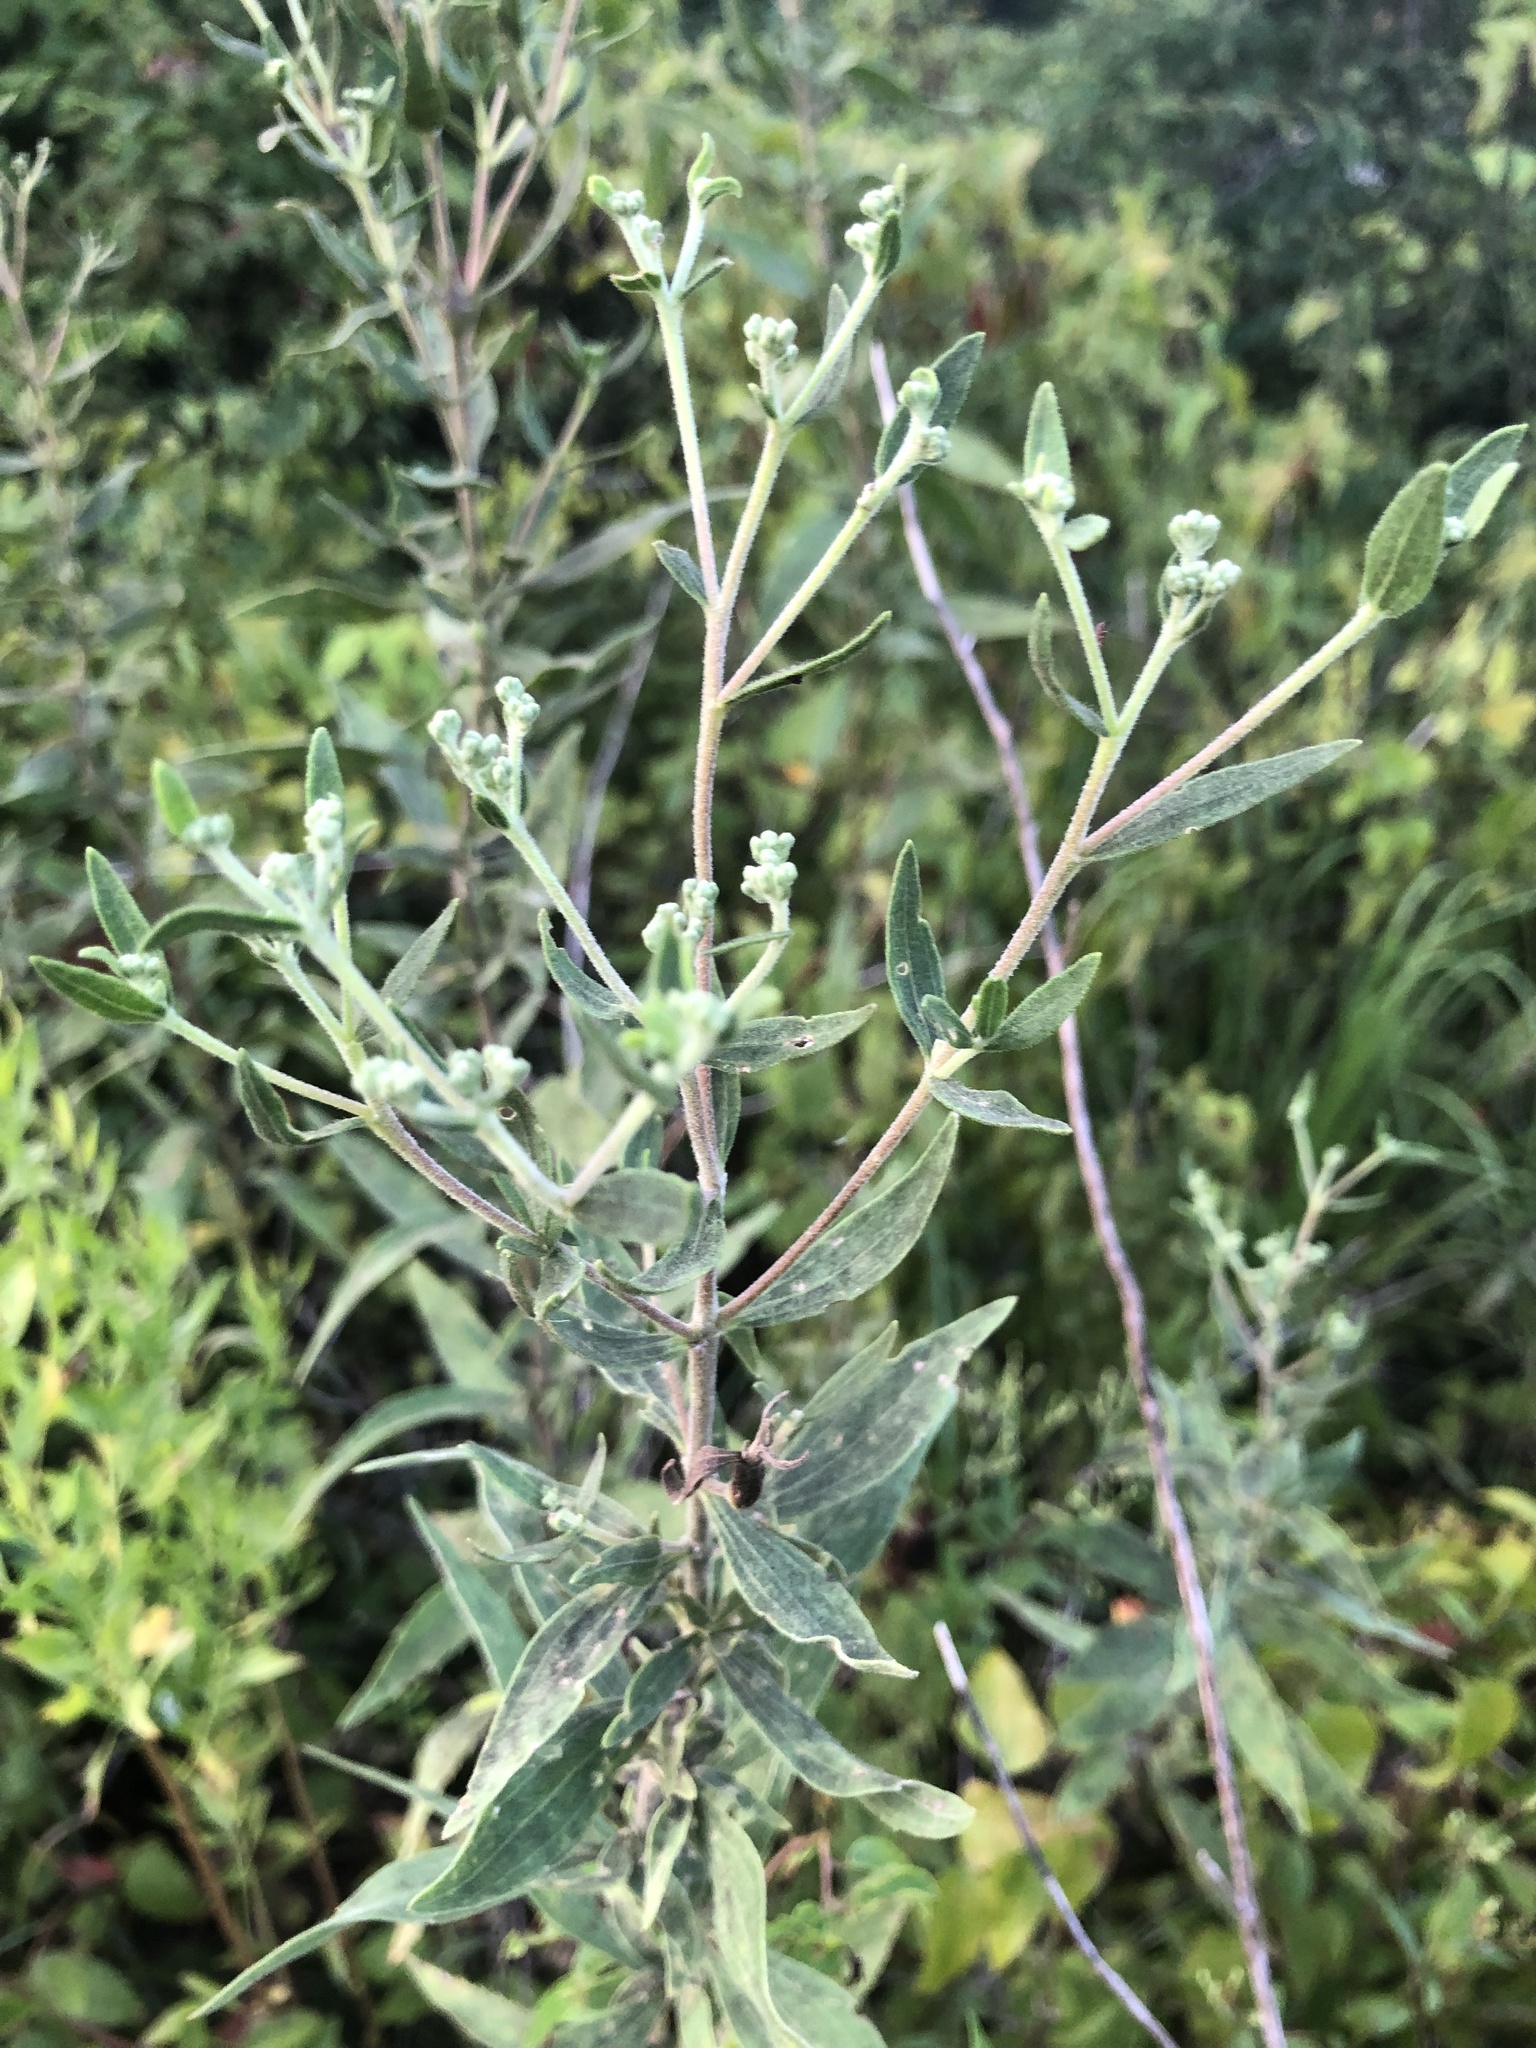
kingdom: Plantae
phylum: Tracheophyta
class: Magnoliopsida
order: Asterales
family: Asteraceae
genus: Eupatorium
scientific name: Eupatorium altissimum
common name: Tall thoroughwort
